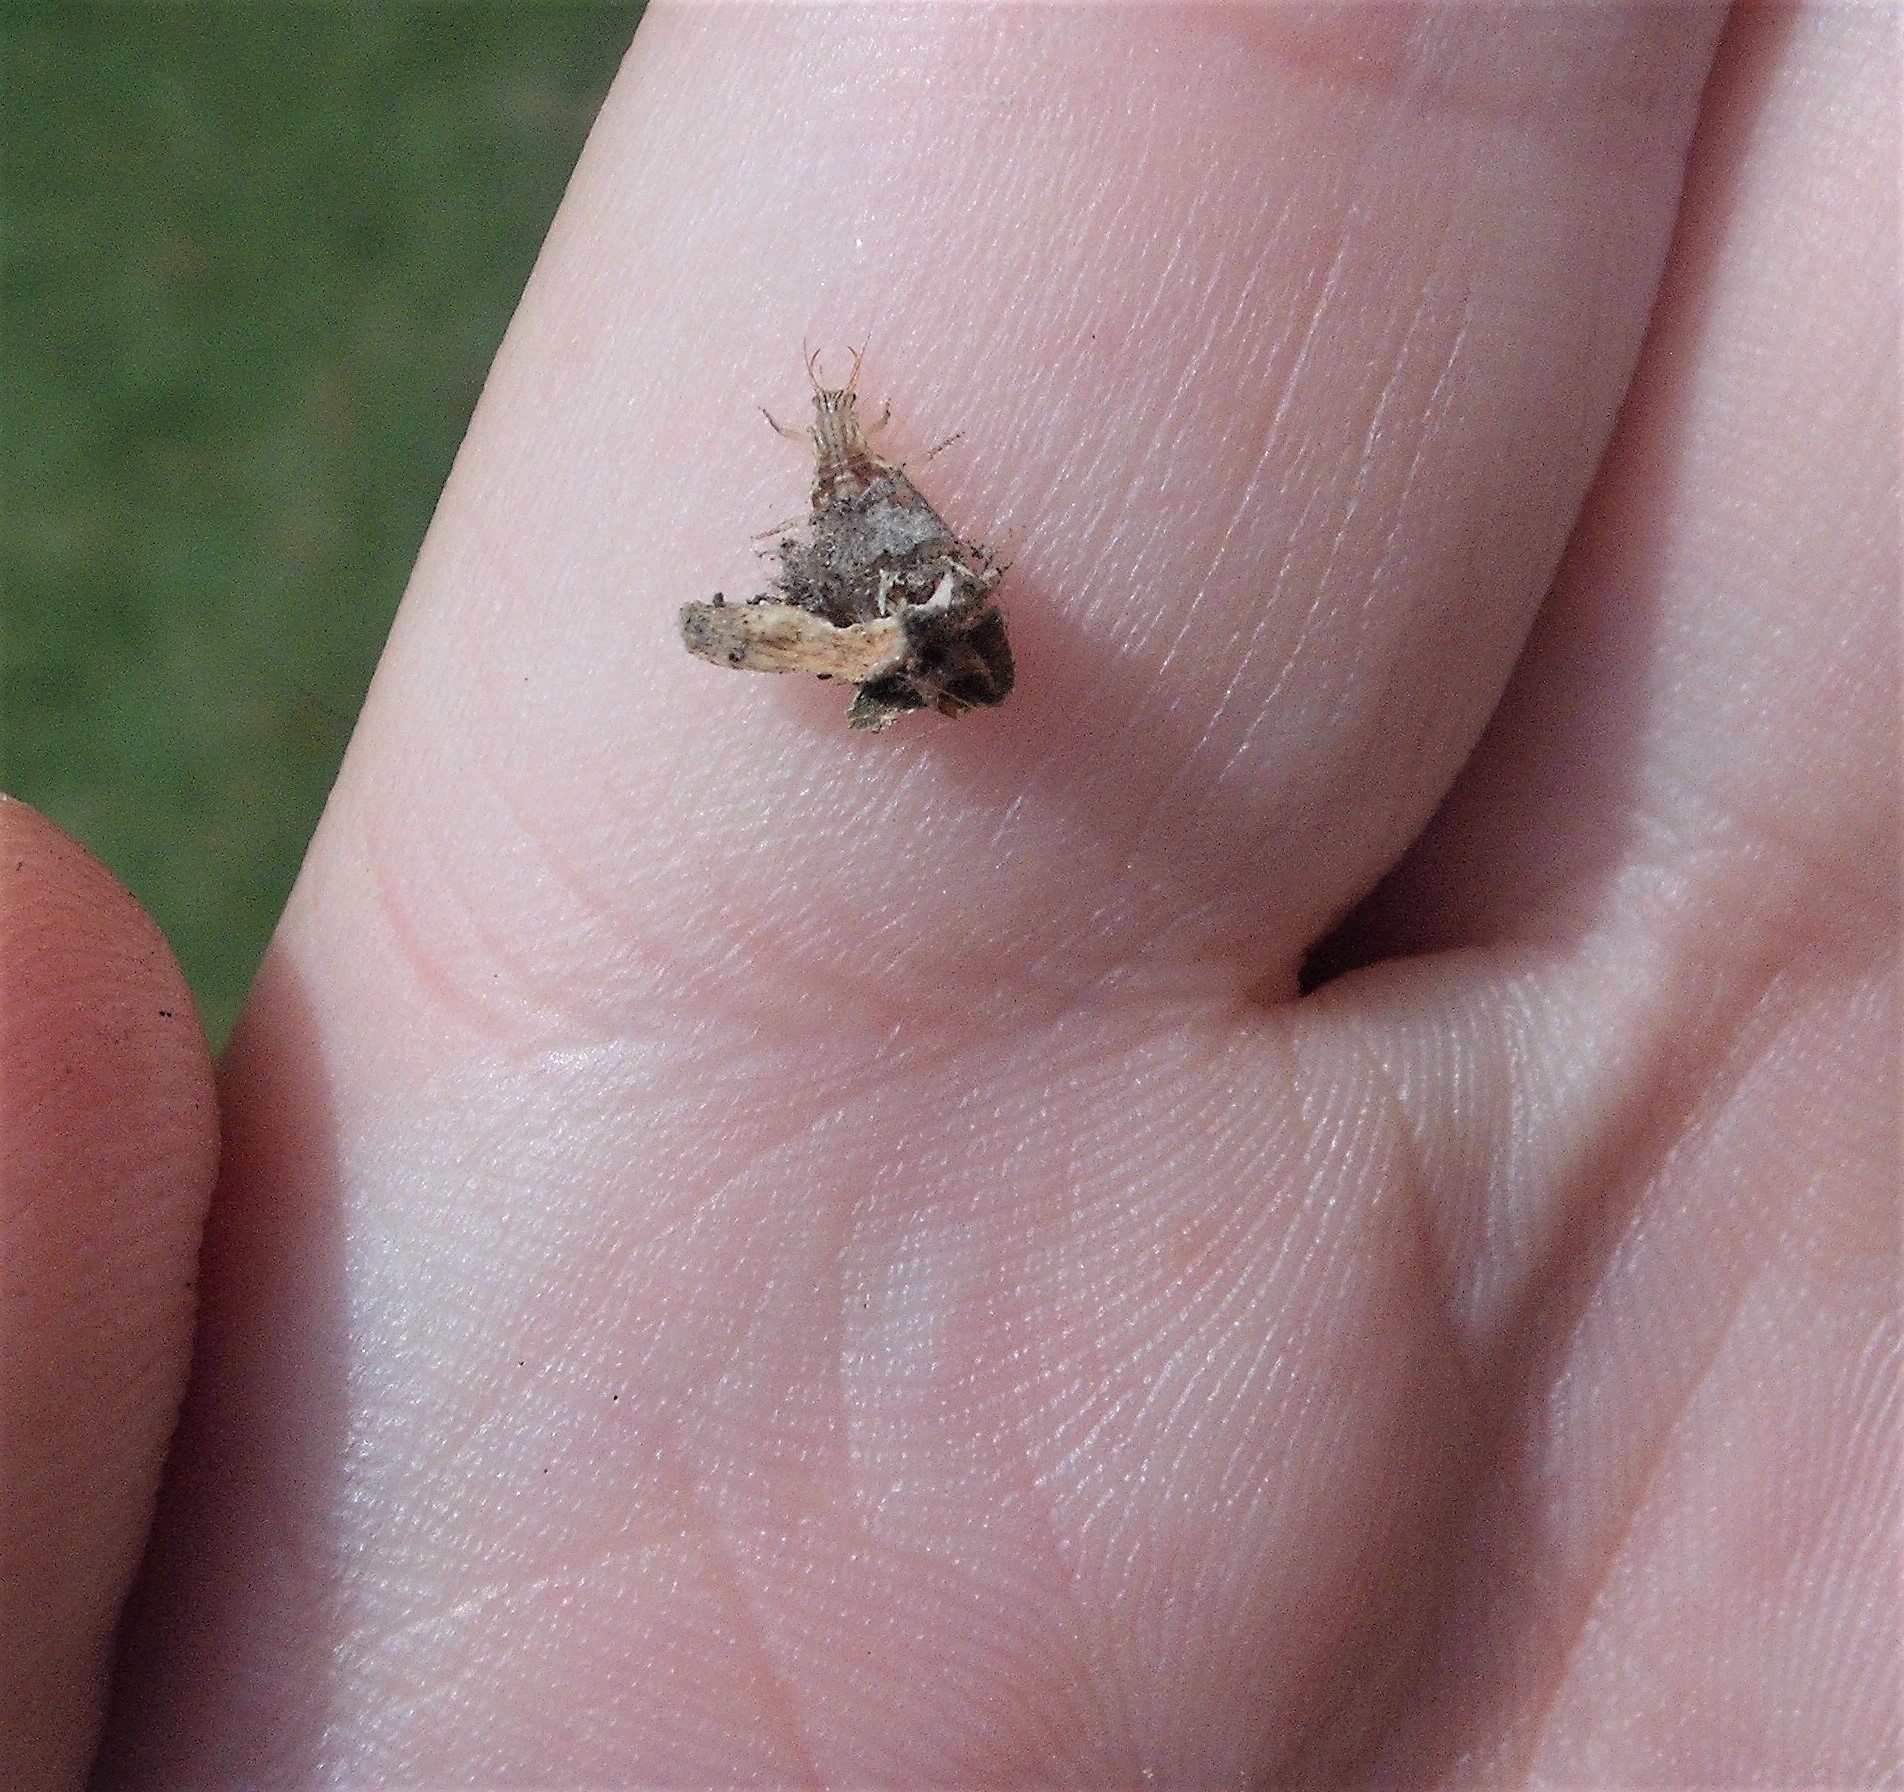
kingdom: Animalia
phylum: Arthropoda
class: Insecta
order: Neuroptera
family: Chrysopidae
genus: Mallada
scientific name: Mallada basalis
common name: Green lacewing
